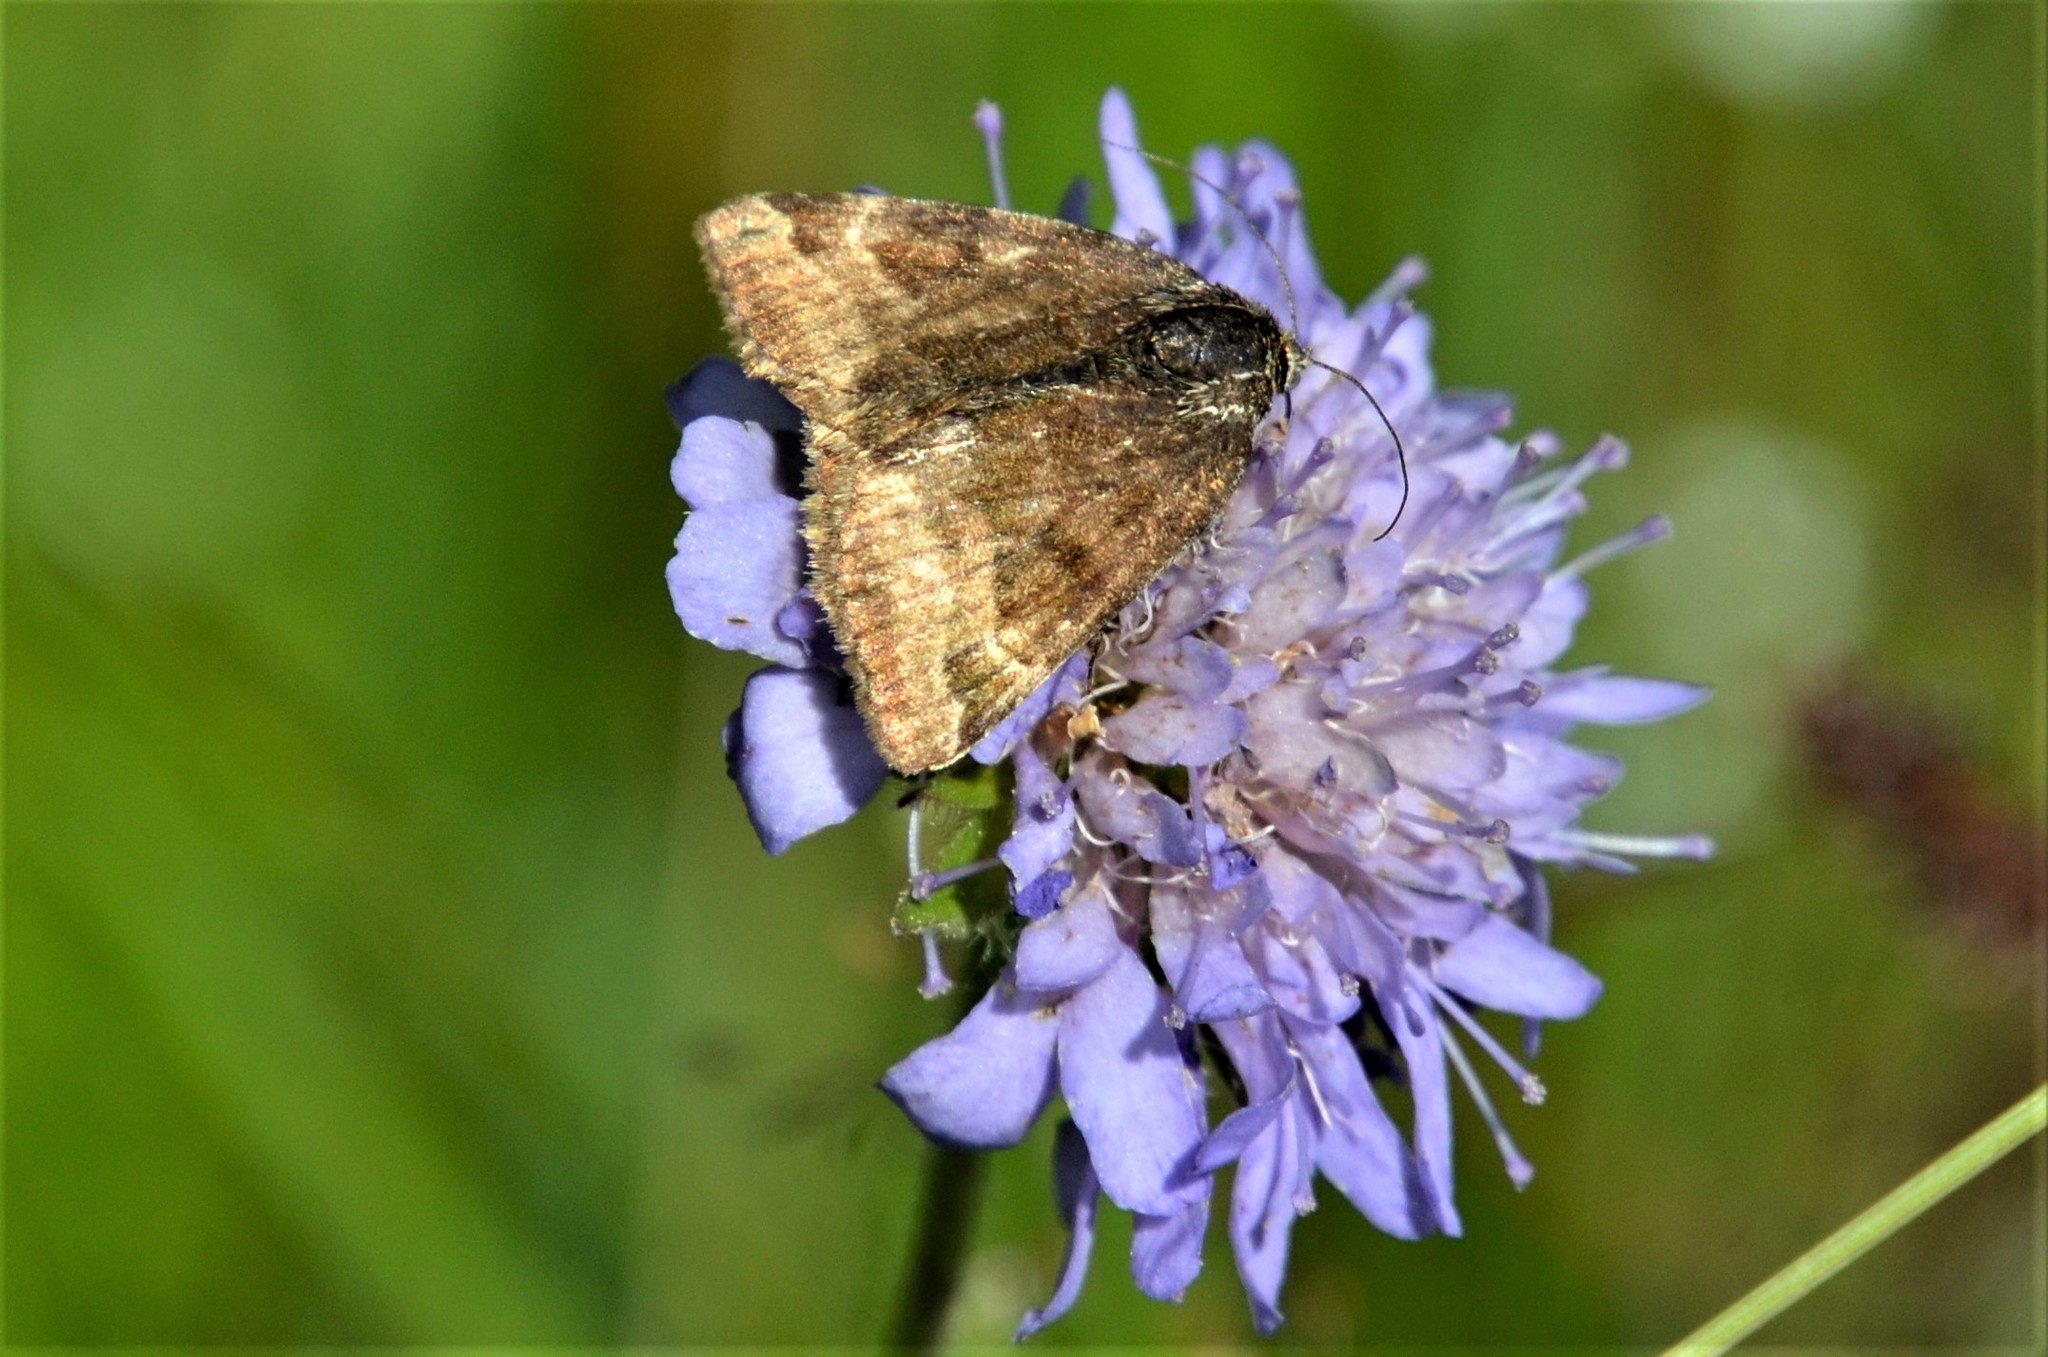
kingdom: Animalia
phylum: Arthropoda
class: Insecta
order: Lepidoptera
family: Erebidae
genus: Euclidia
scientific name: Euclidia glyphica
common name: Burnet companion
